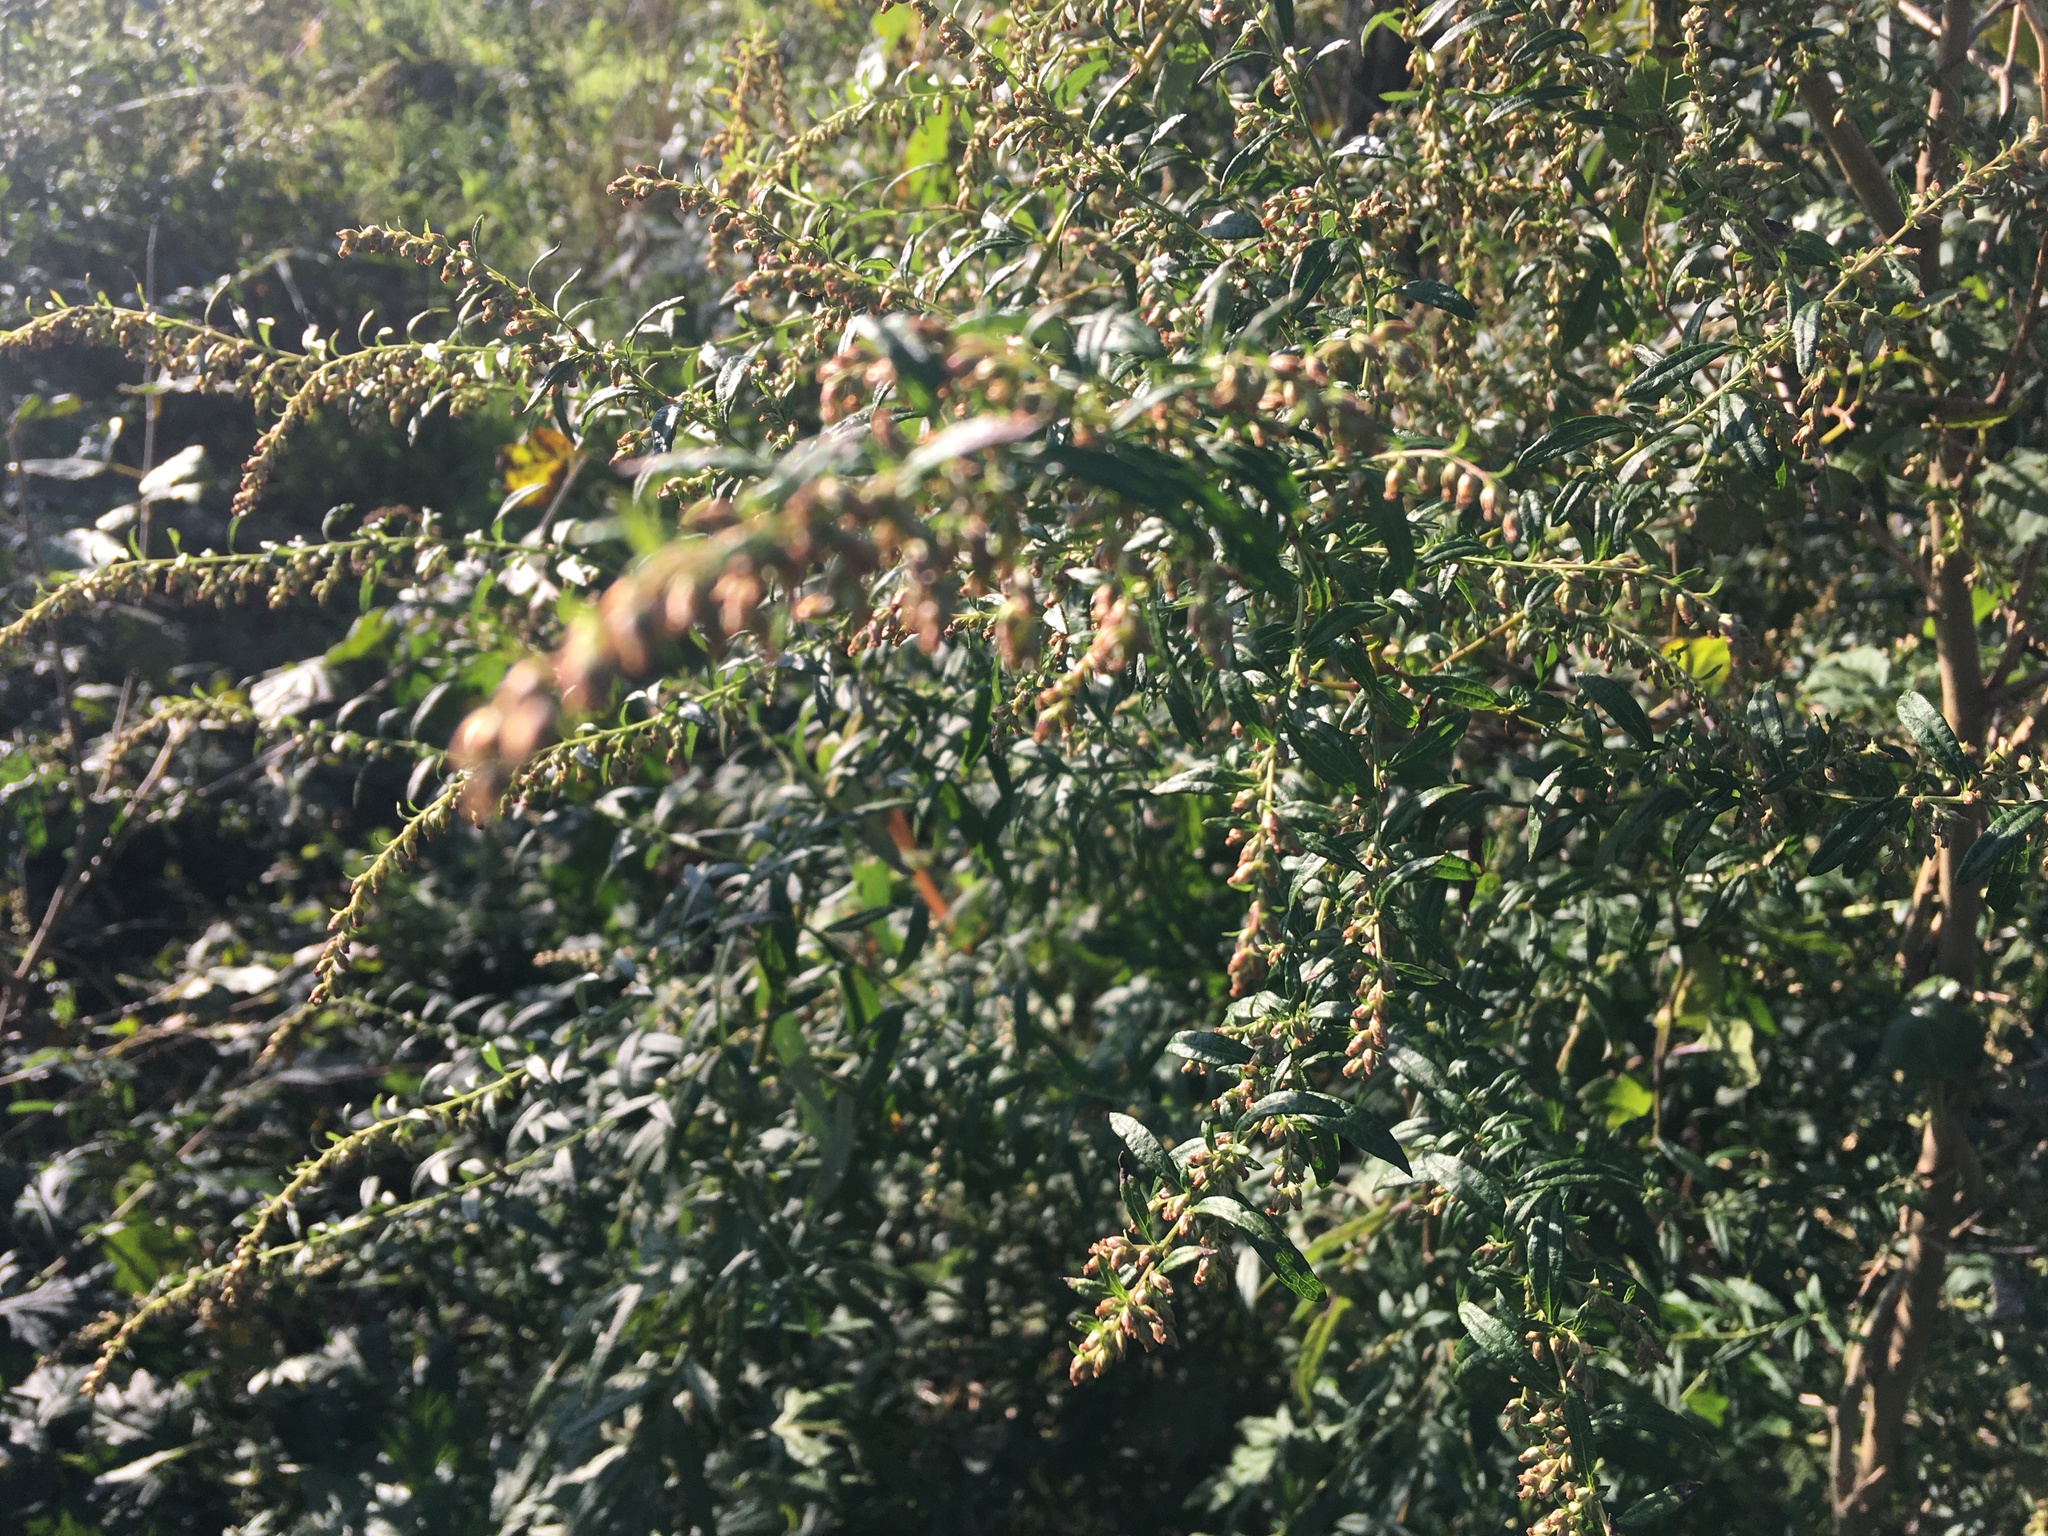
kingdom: Plantae
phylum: Tracheophyta
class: Magnoliopsida
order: Asterales
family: Asteraceae
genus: Artemisia
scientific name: Artemisia vulgaris
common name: Mugwort
